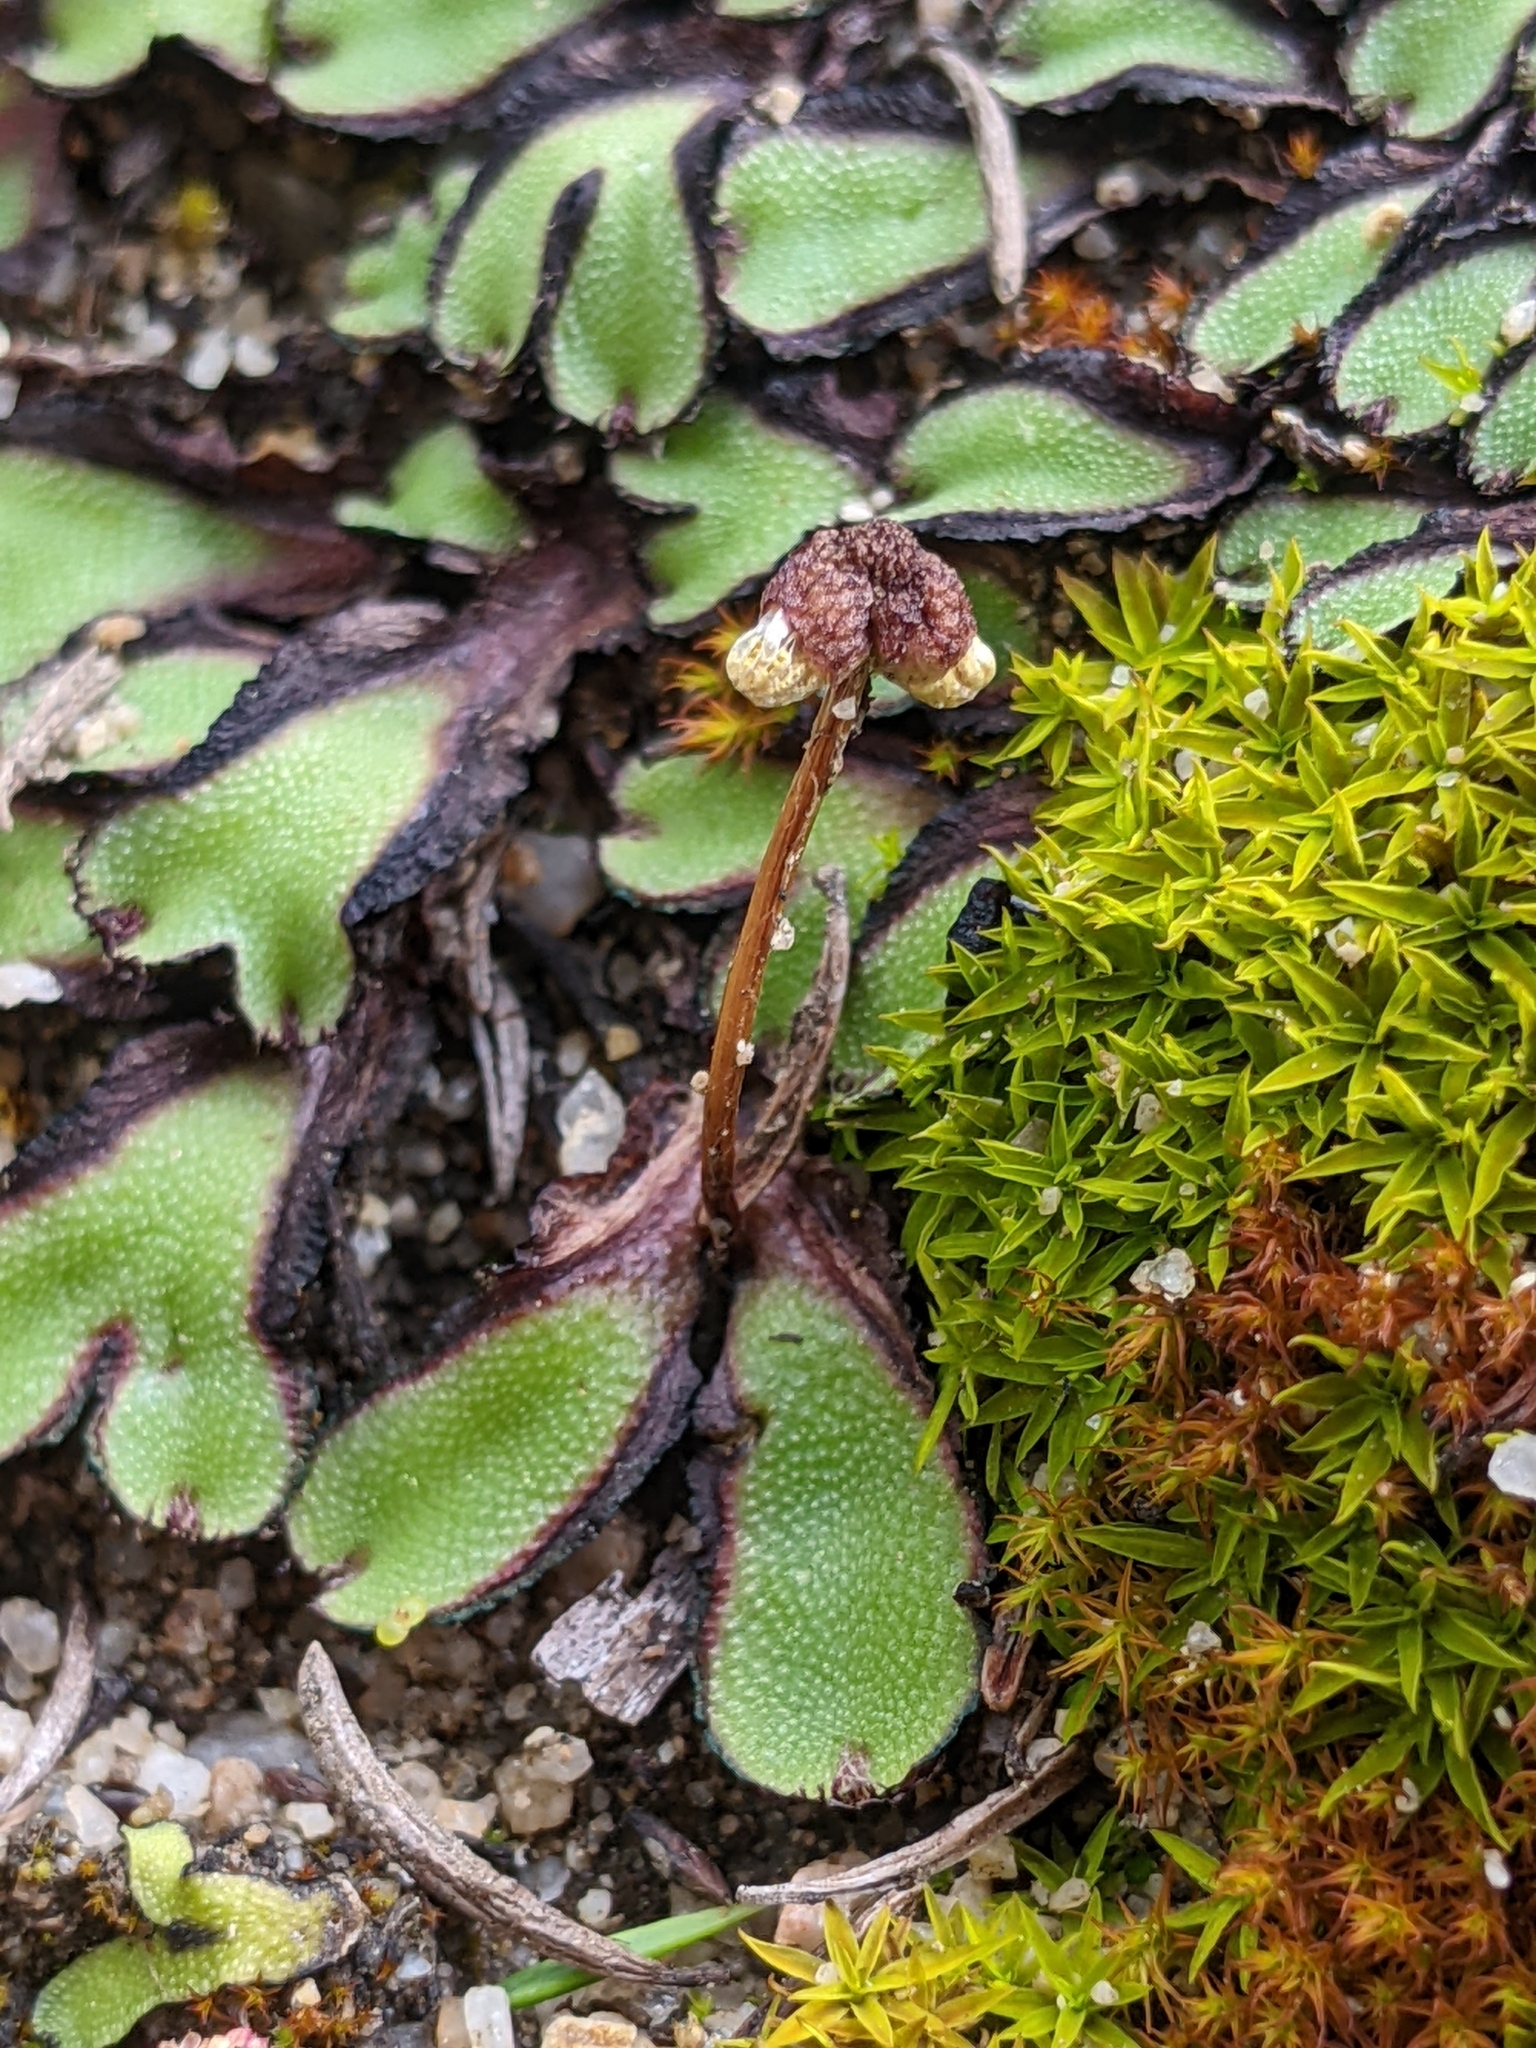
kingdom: Plantae
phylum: Marchantiophyta
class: Marchantiopsida
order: Marchantiales
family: Aytoniaceae
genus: Asterella
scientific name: Asterella californica
